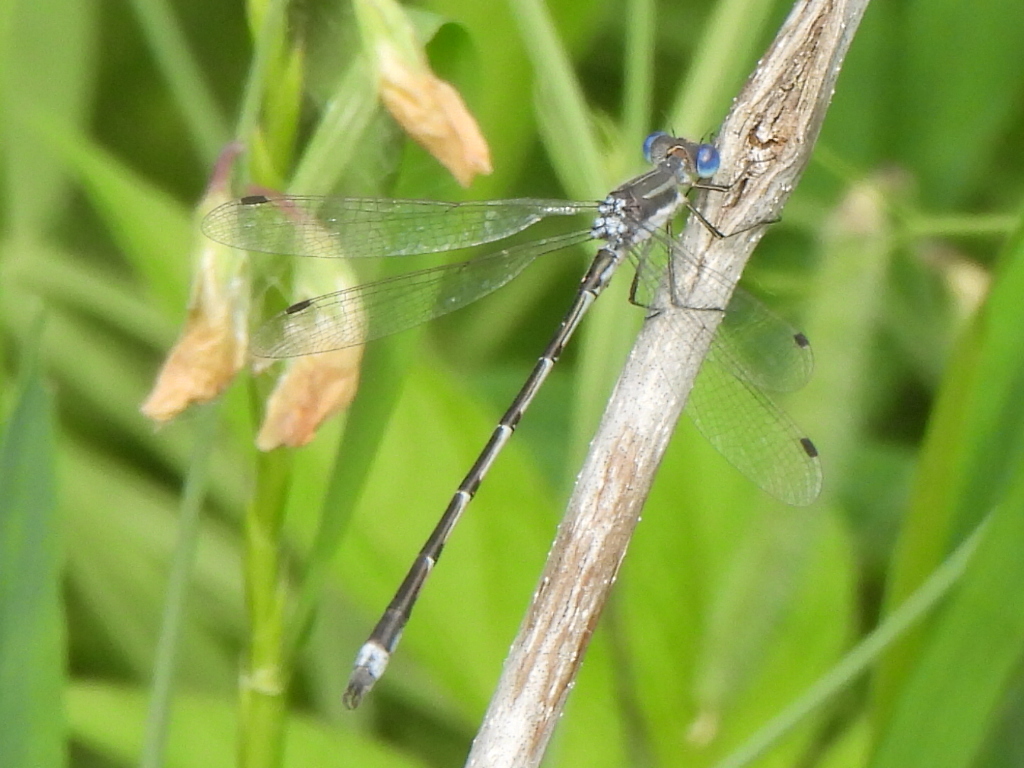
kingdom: Animalia
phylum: Arthropoda
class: Insecta
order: Odonata
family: Lestidae
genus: Lestes
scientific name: Lestes australis
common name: Southern spreadwing
